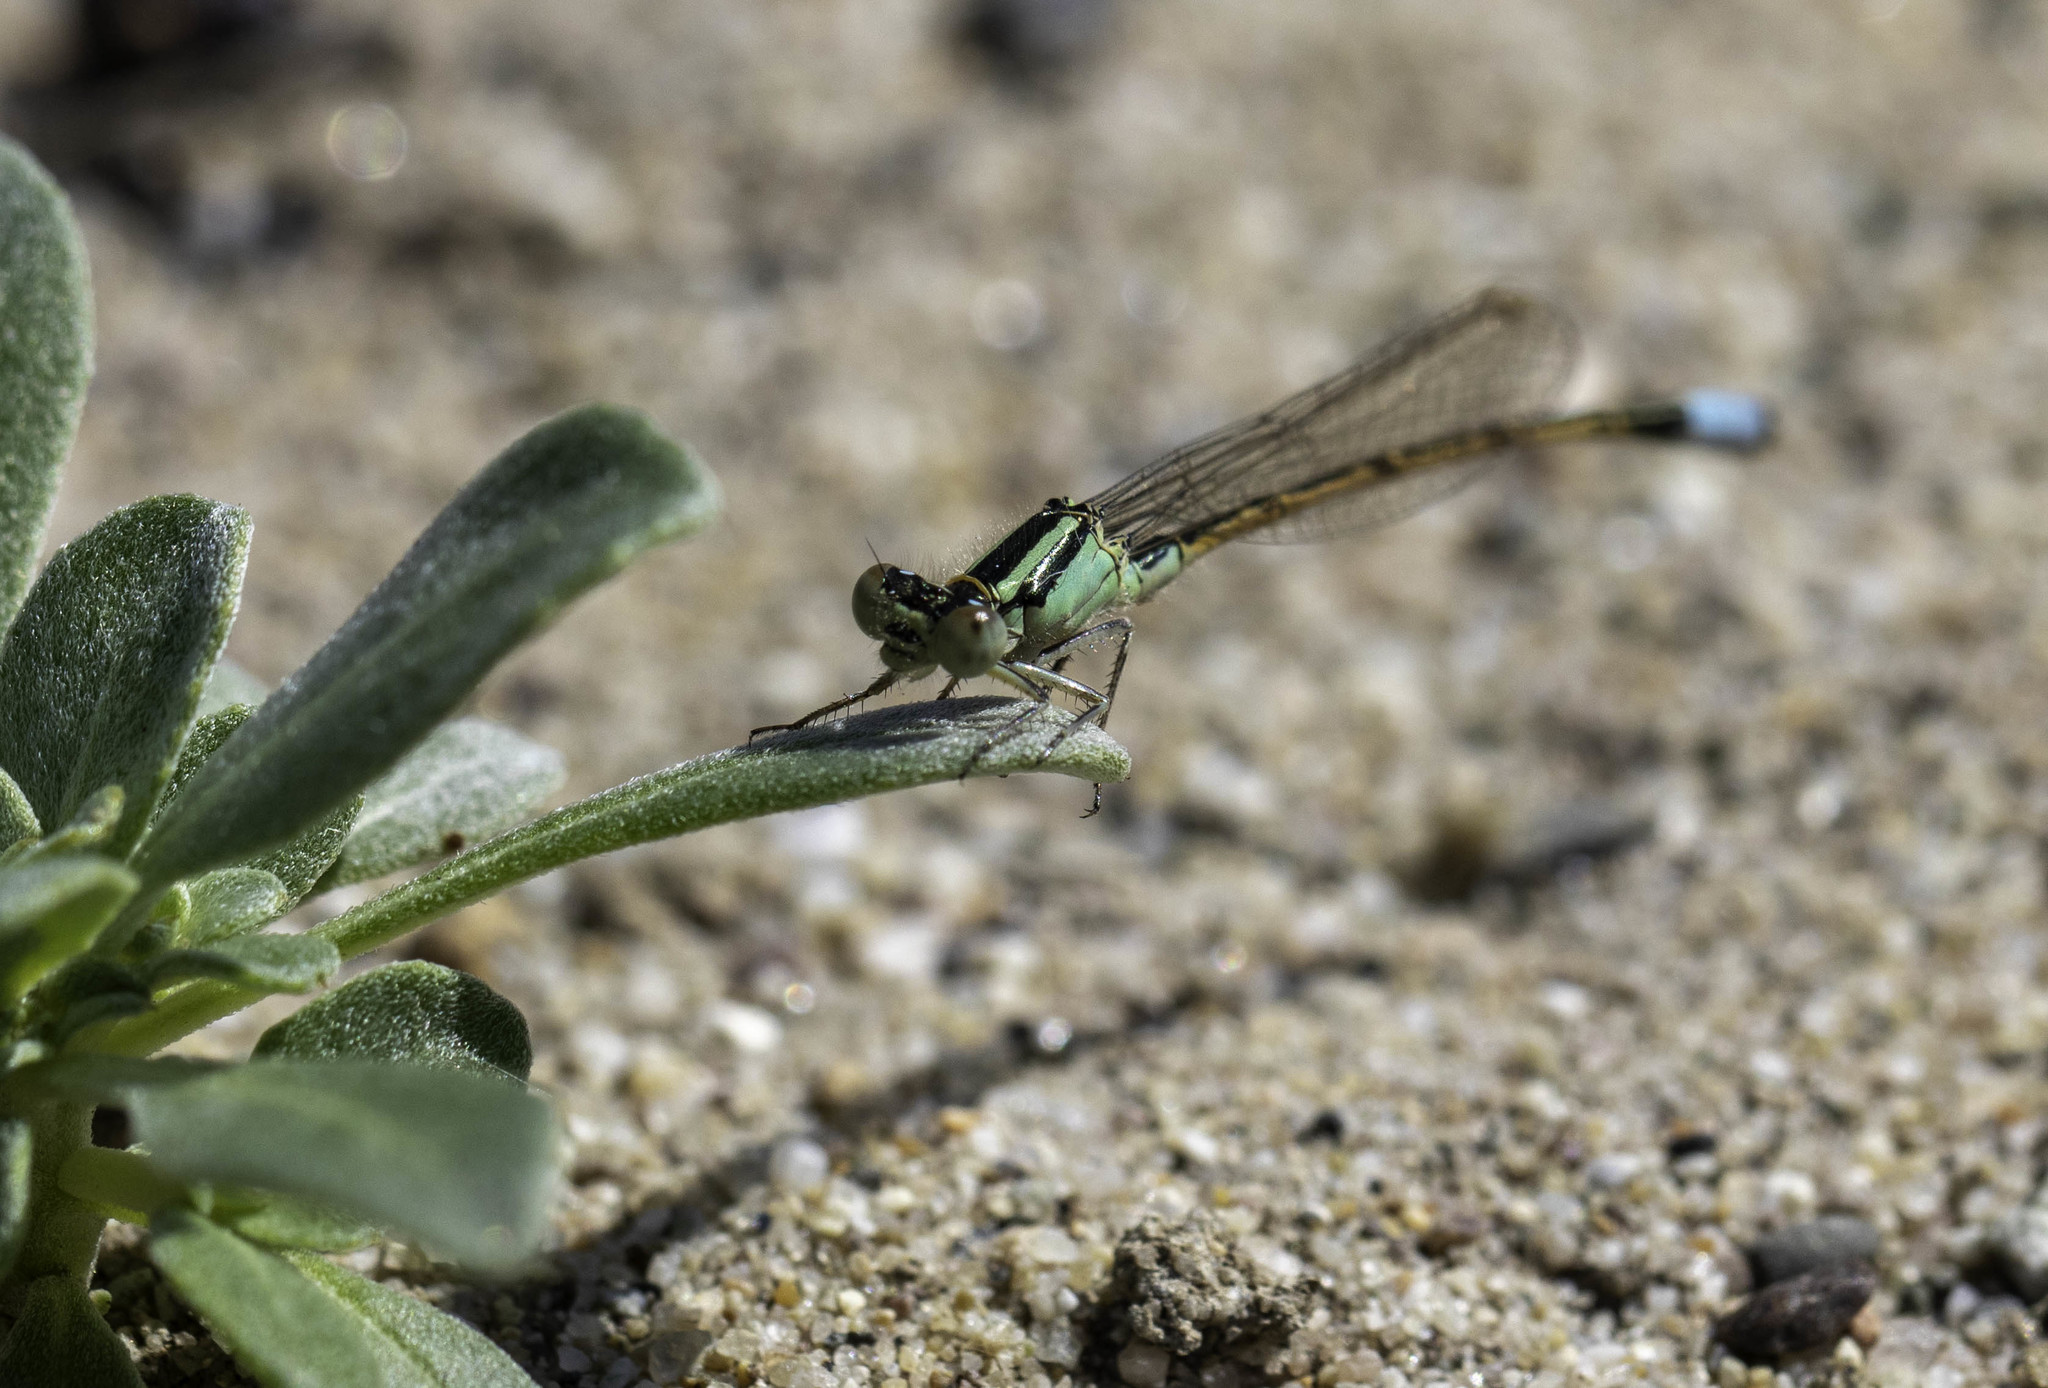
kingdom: Animalia
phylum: Arthropoda
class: Insecta
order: Odonata
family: Coenagrionidae
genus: Ischnura
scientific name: Ischnura barberi
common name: Desert forktail
